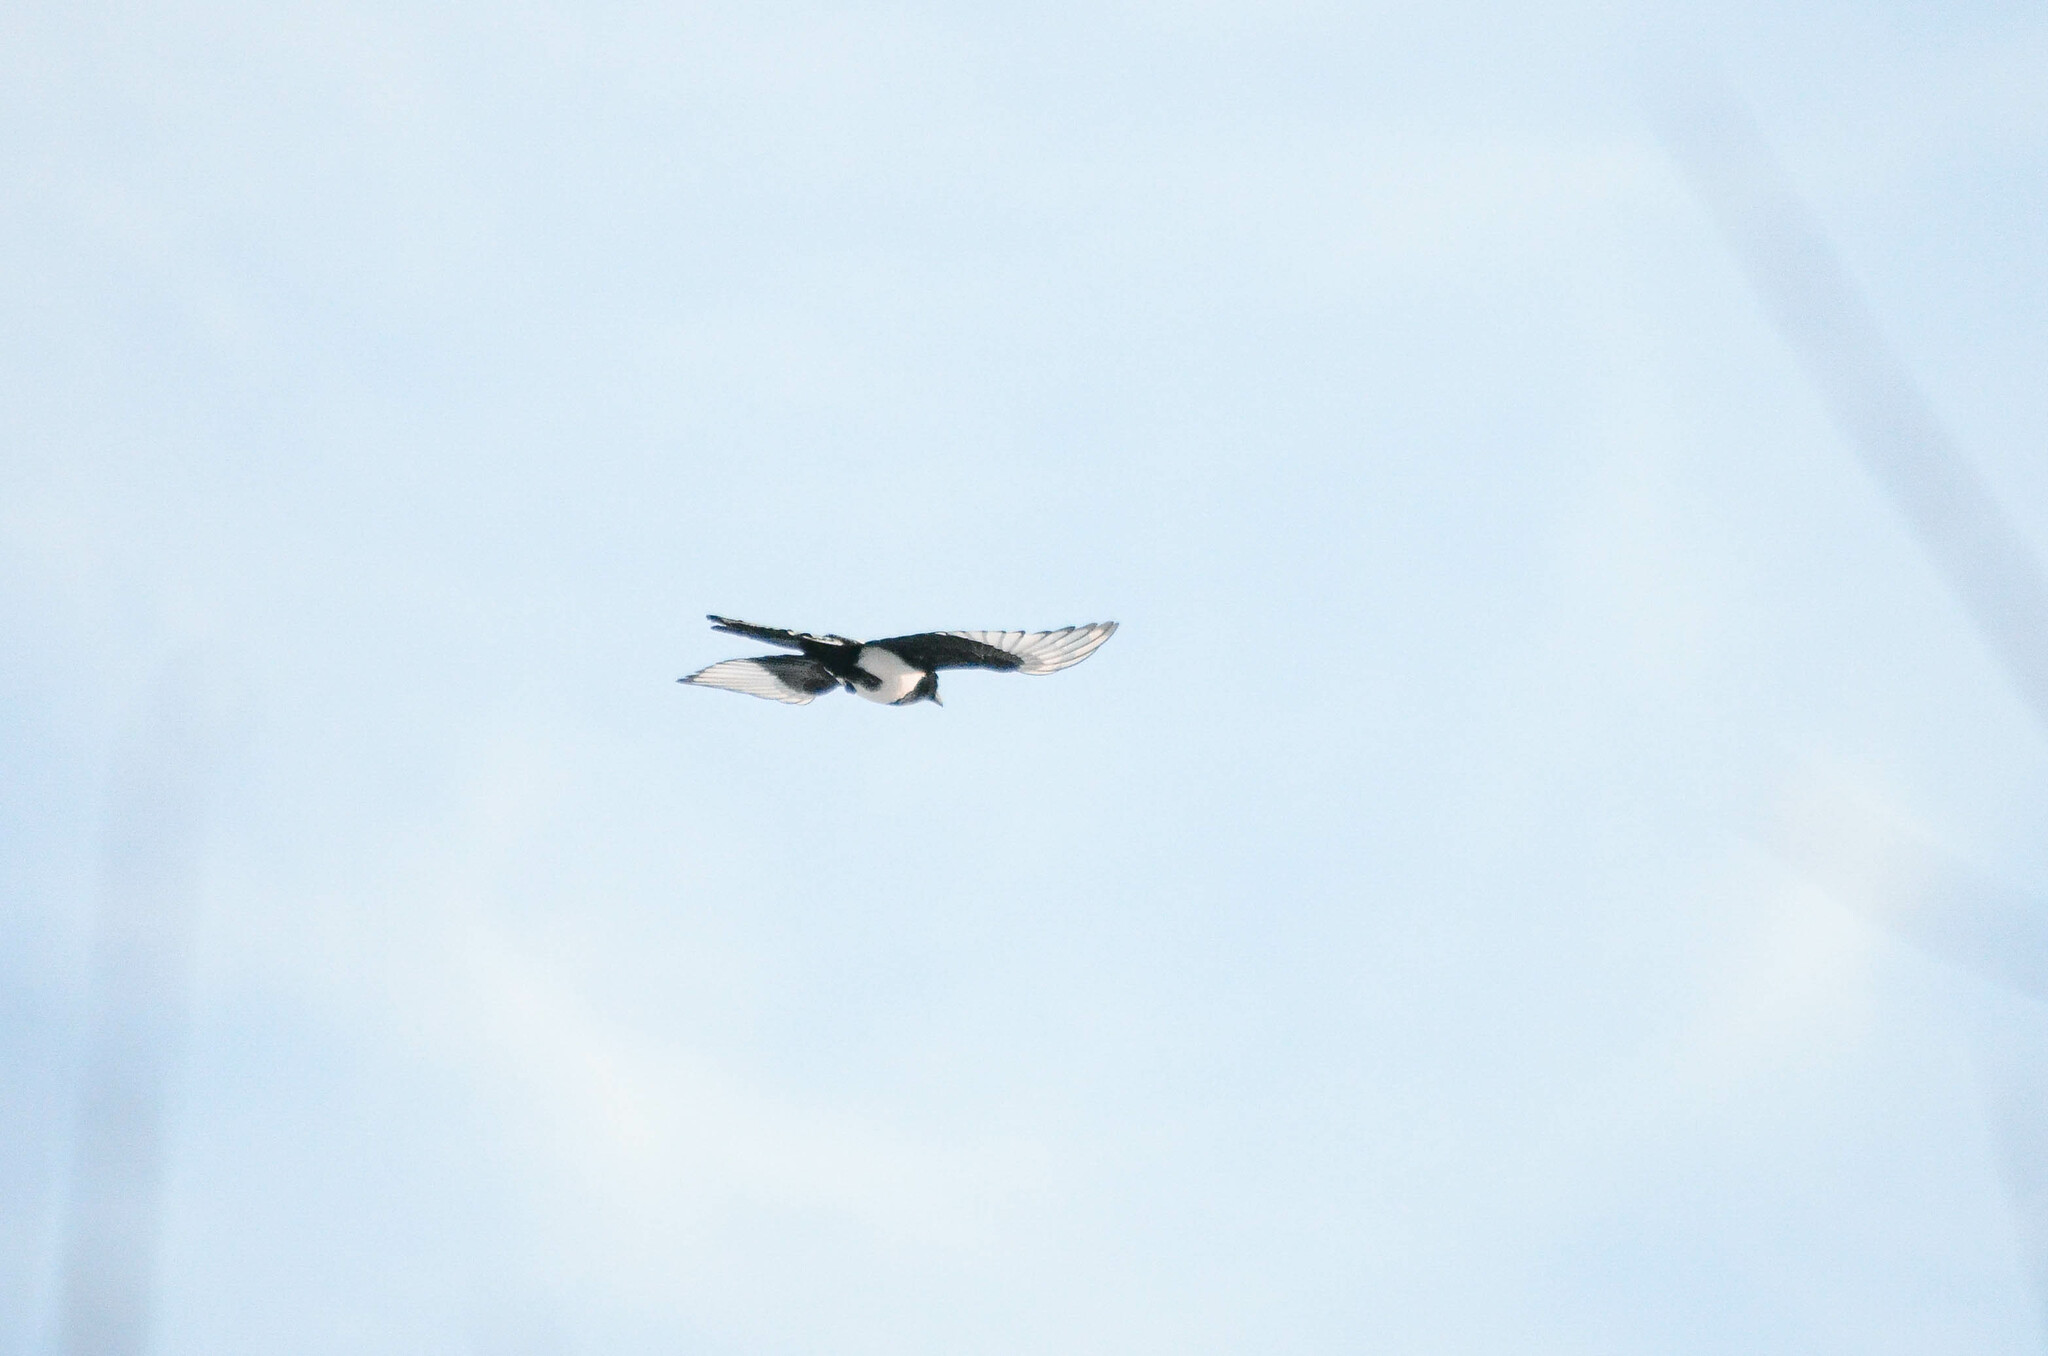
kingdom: Animalia
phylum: Chordata
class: Aves
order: Passeriformes
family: Corvidae
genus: Pica
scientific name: Pica pica
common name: Eurasian magpie
